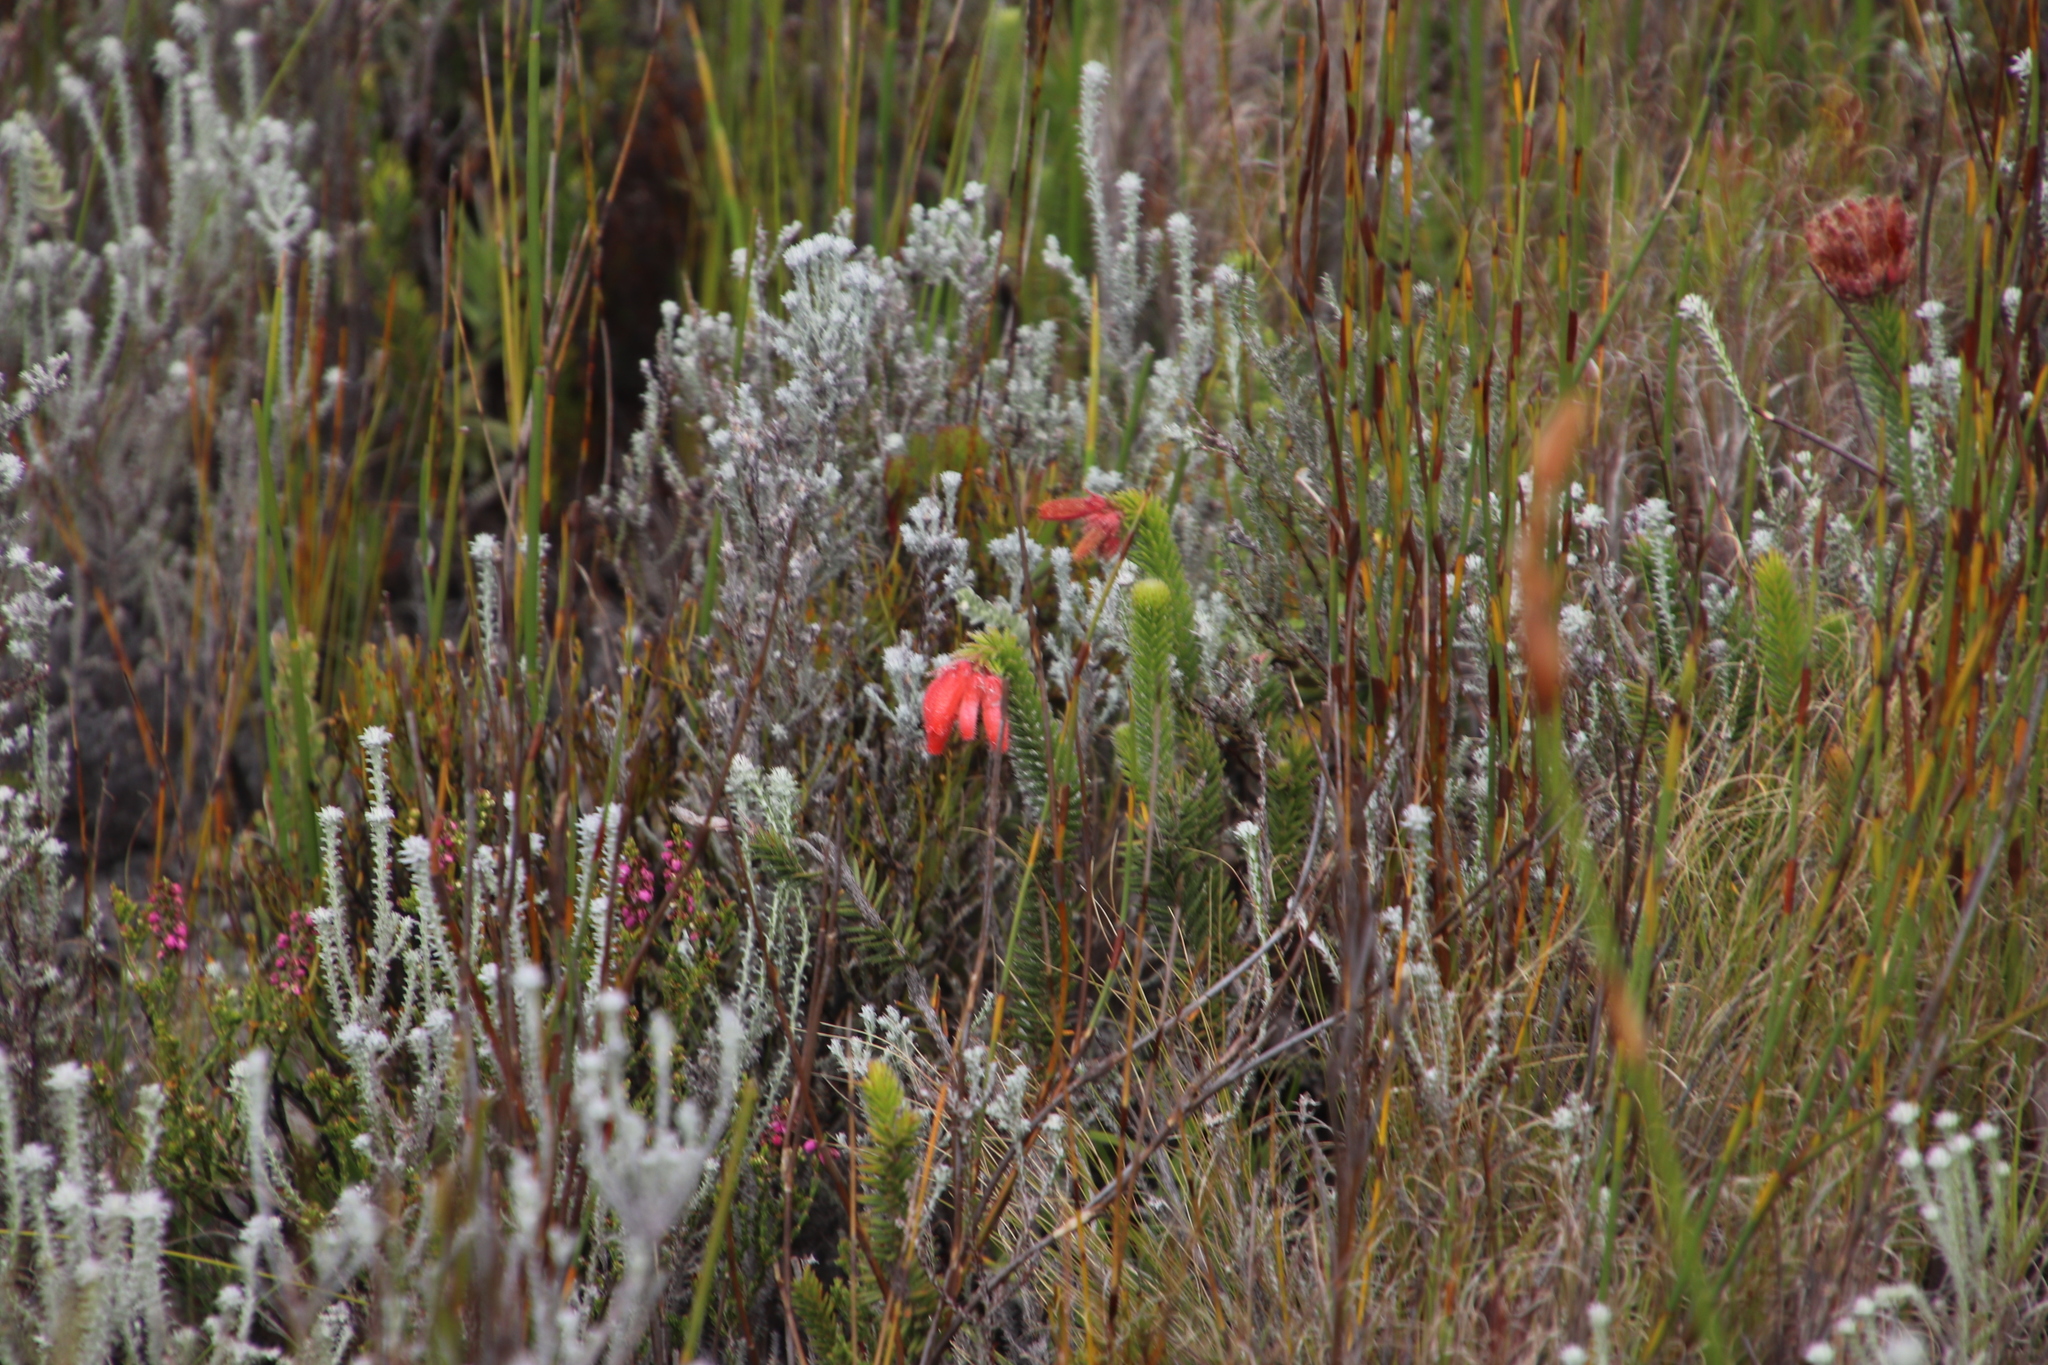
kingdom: Plantae
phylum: Tracheophyta
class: Magnoliopsida
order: Ericales
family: Ericaceae
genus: Erica
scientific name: Erica cerinthoides
